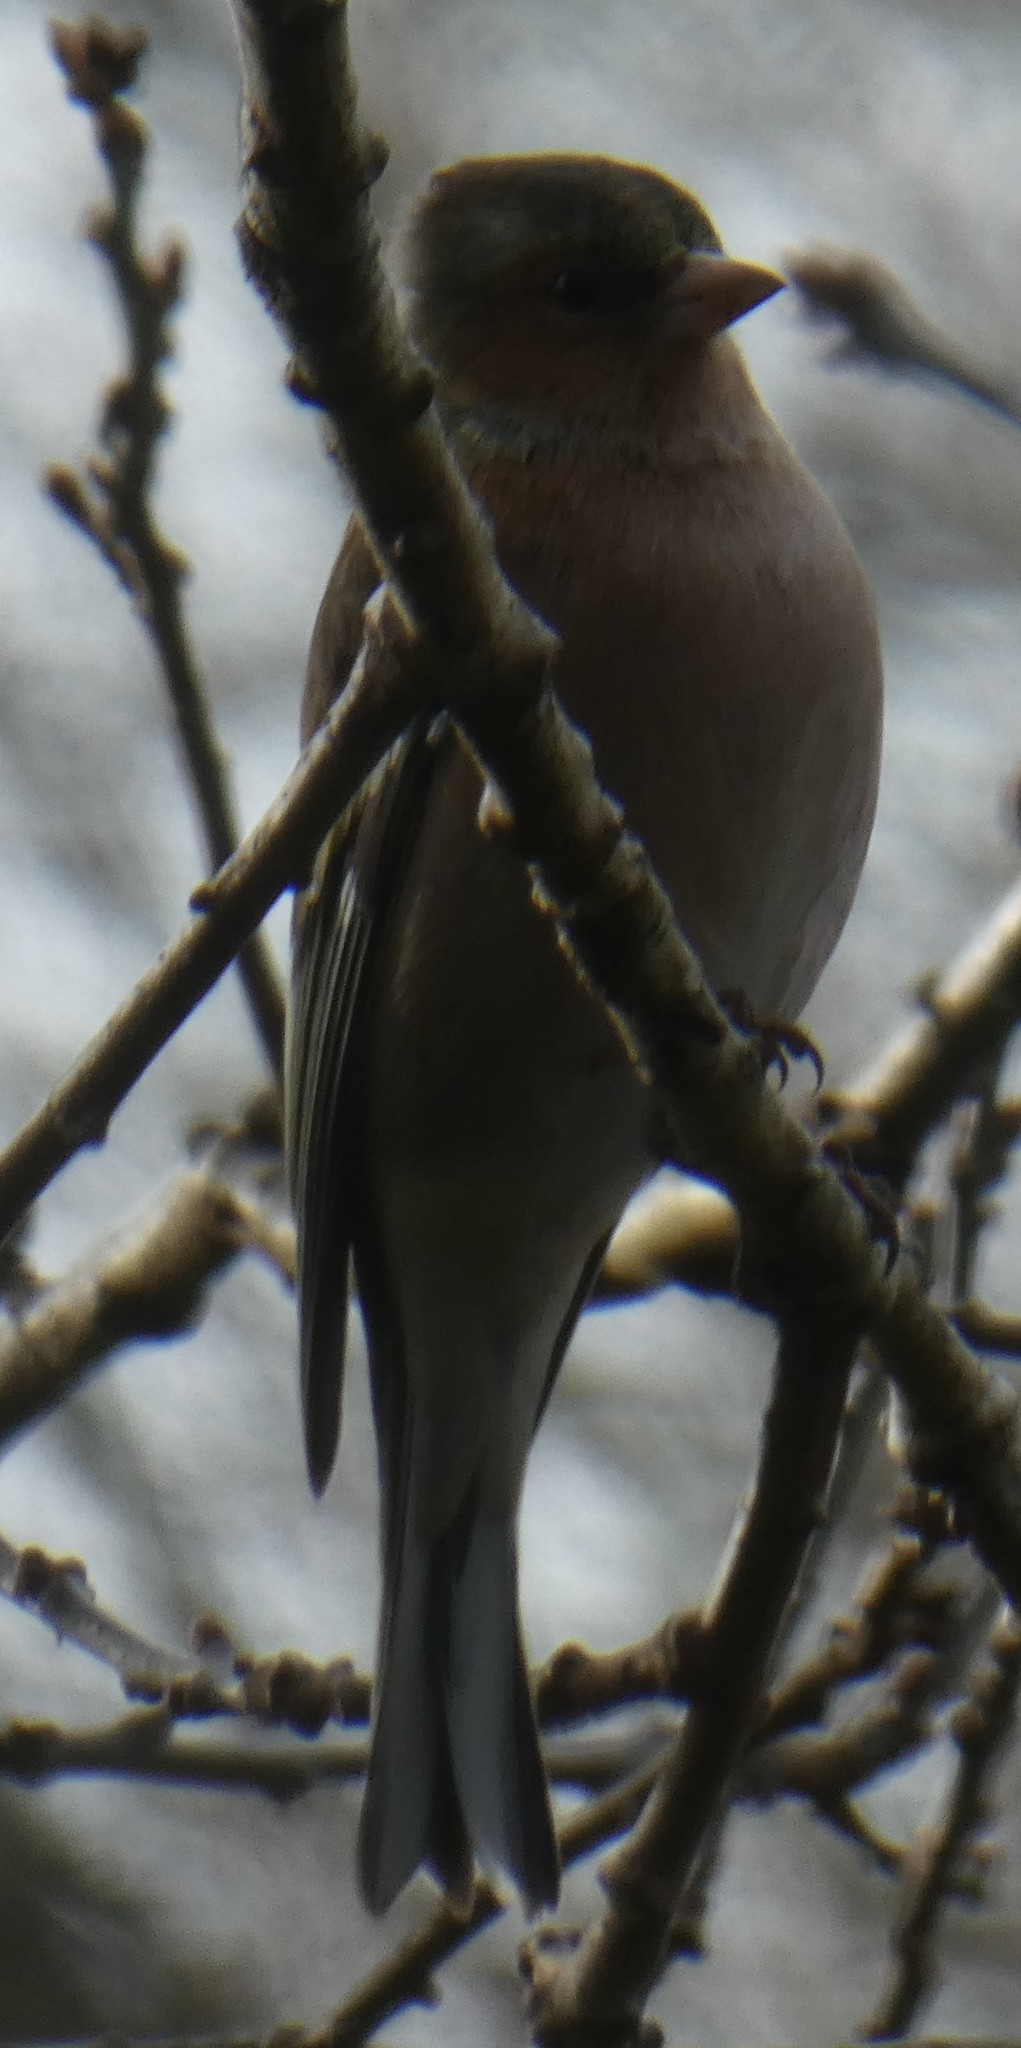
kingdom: Animalia
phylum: Chordata
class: Aves
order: Passeriformes
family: Fringillidae
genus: Fringilla
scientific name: Fringilla coelebs
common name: Common chaffinch
